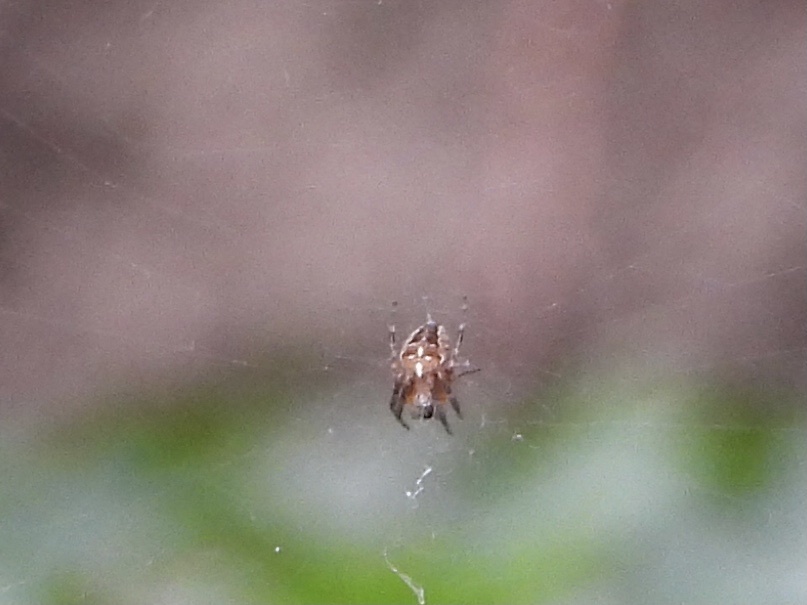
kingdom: Animalia
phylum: Arthropoda
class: Arachnida
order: Araneae
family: Araneidae
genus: Araneus
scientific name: Araneus diadematus
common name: Cross orbweaver
